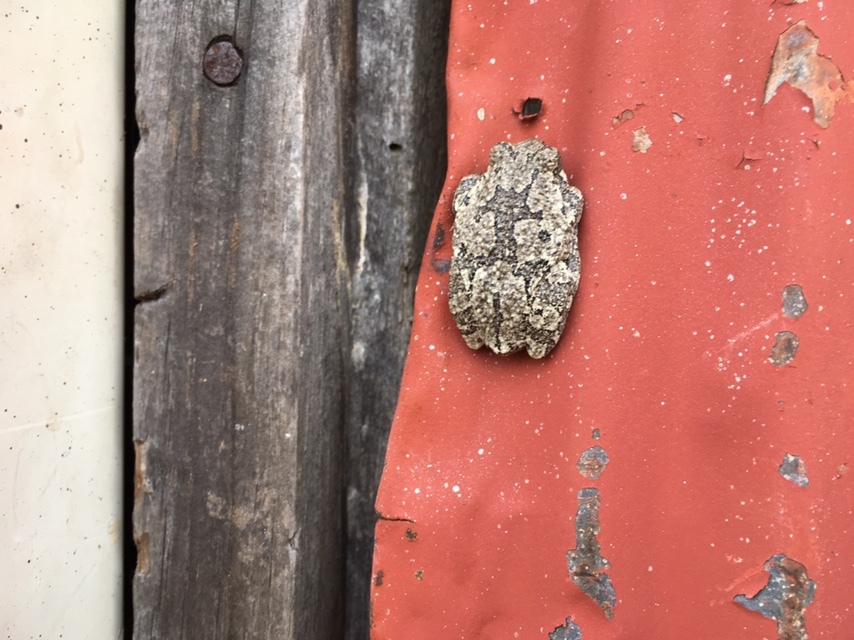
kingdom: Animalia
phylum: Chordata
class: Amphibia
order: Anura
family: Hylidae
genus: Hyla
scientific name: Hyla
